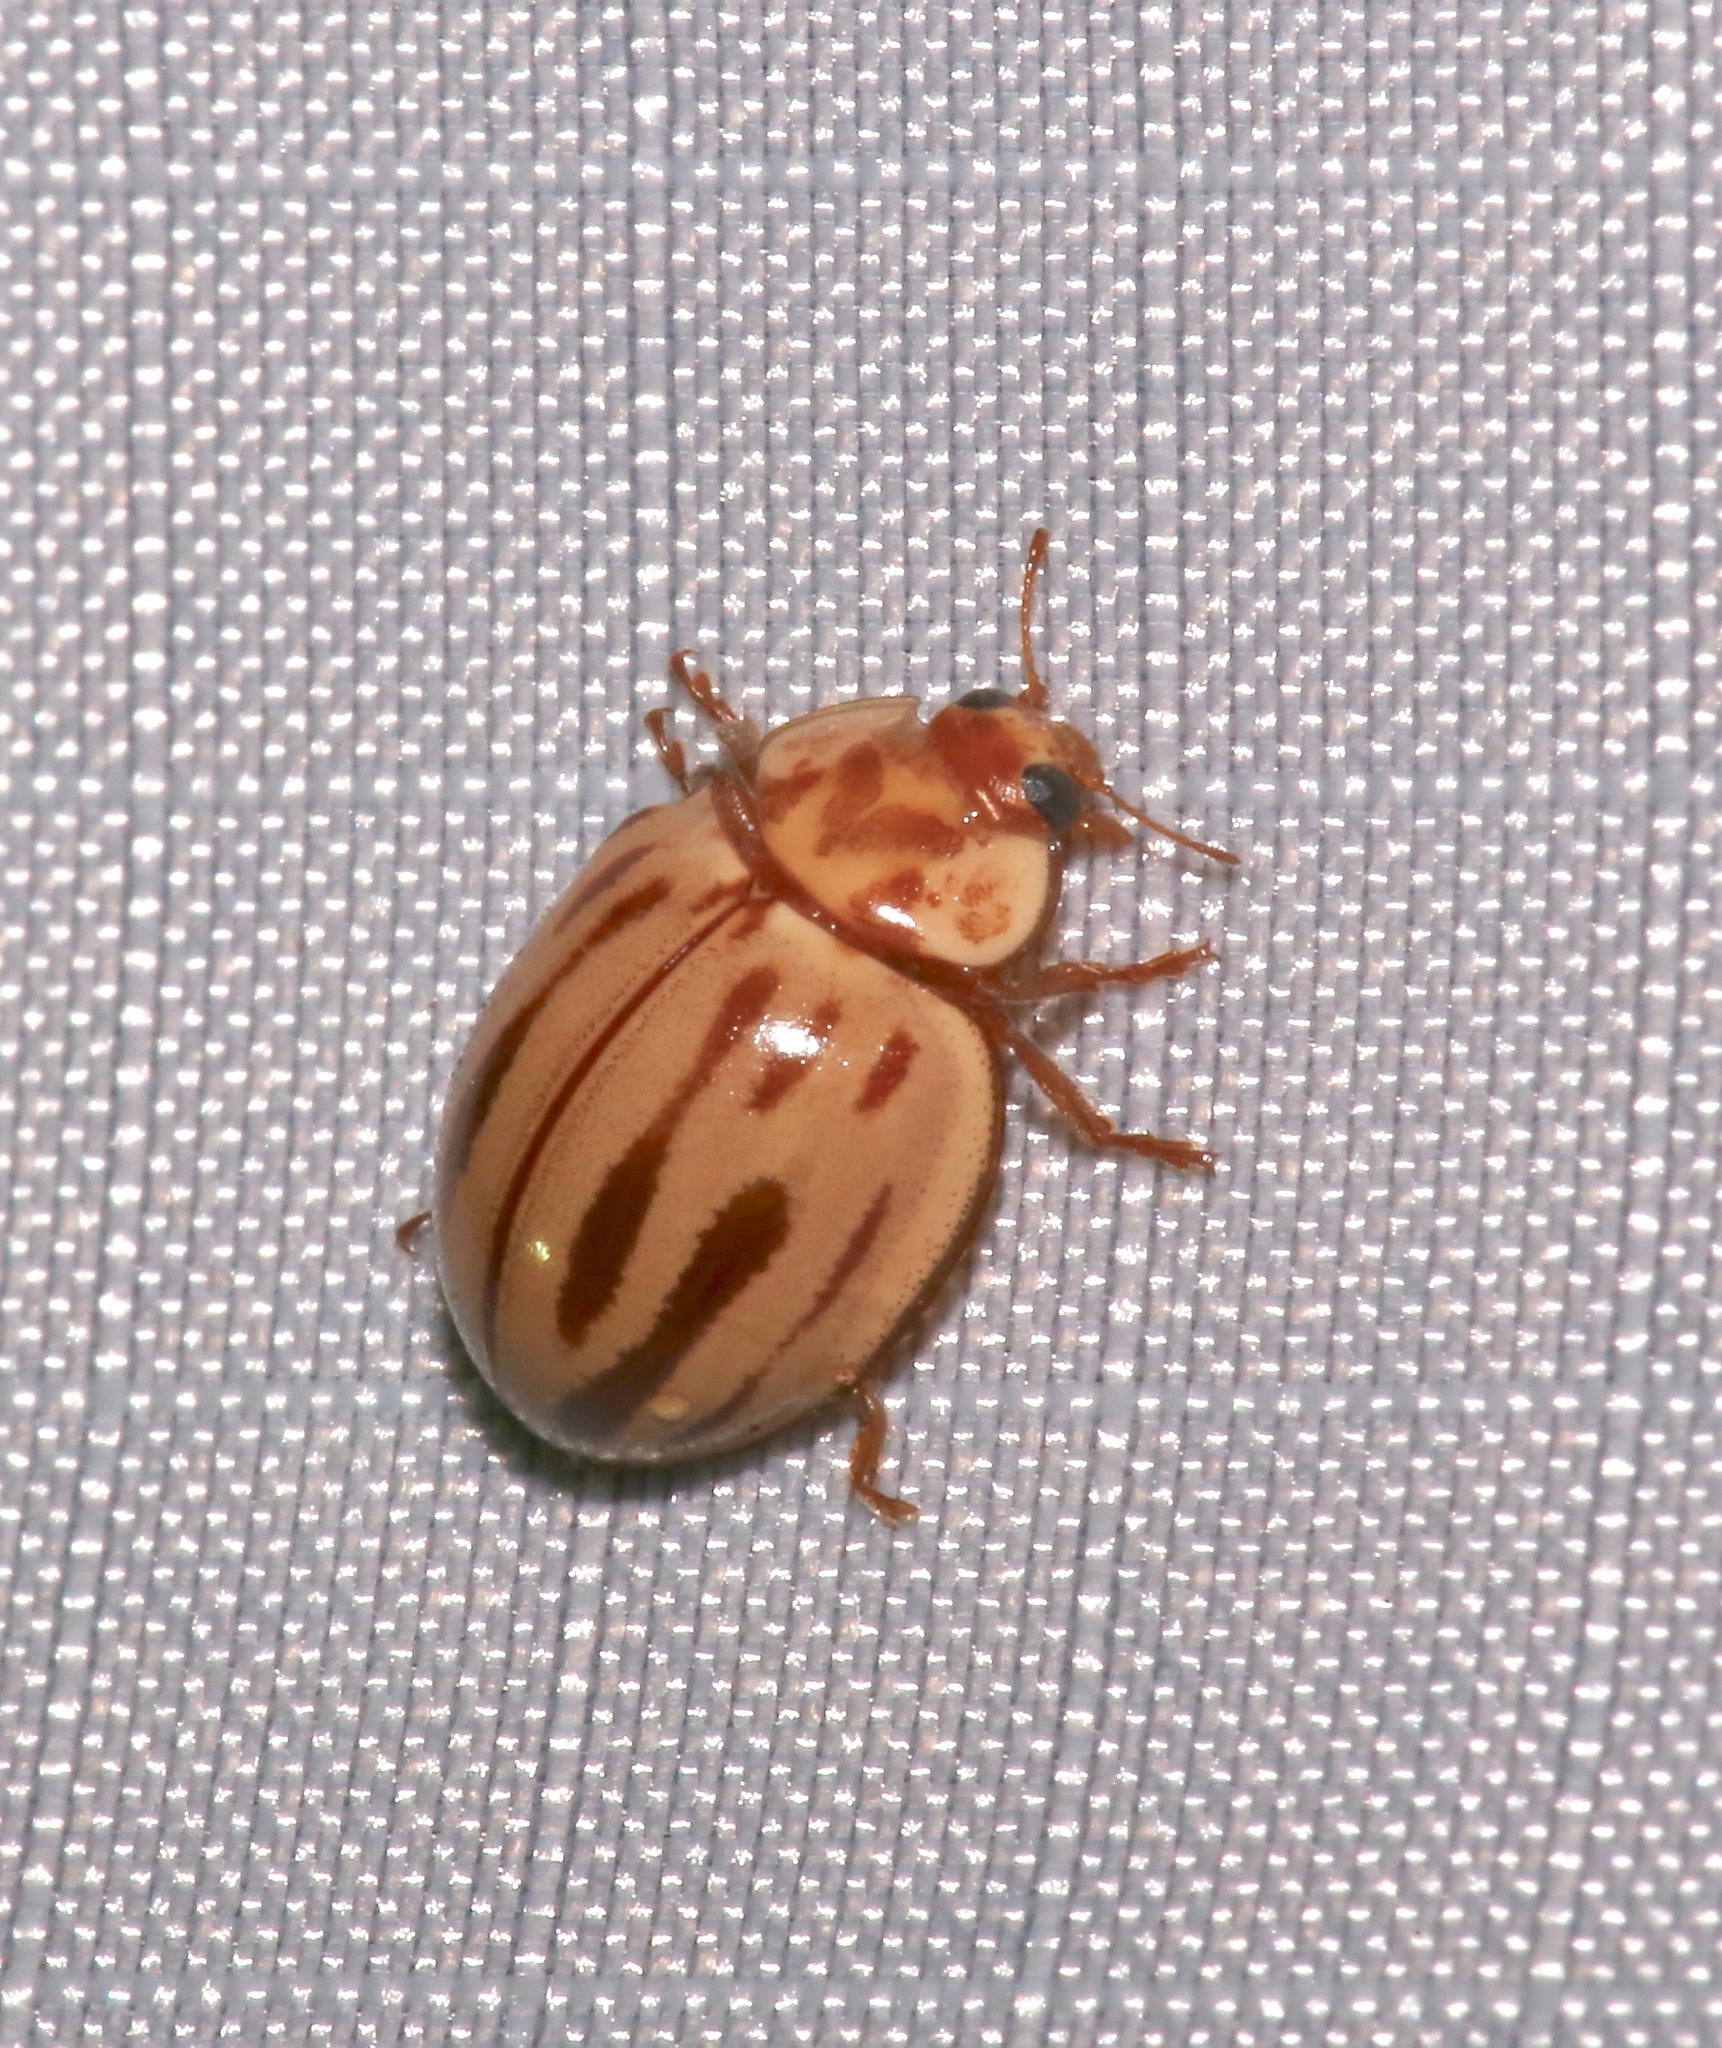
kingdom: Animalia
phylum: Arthropoda
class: Insecta
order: Coleoptera
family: Coccinellidae
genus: Myzia
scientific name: Myzia interrupta
